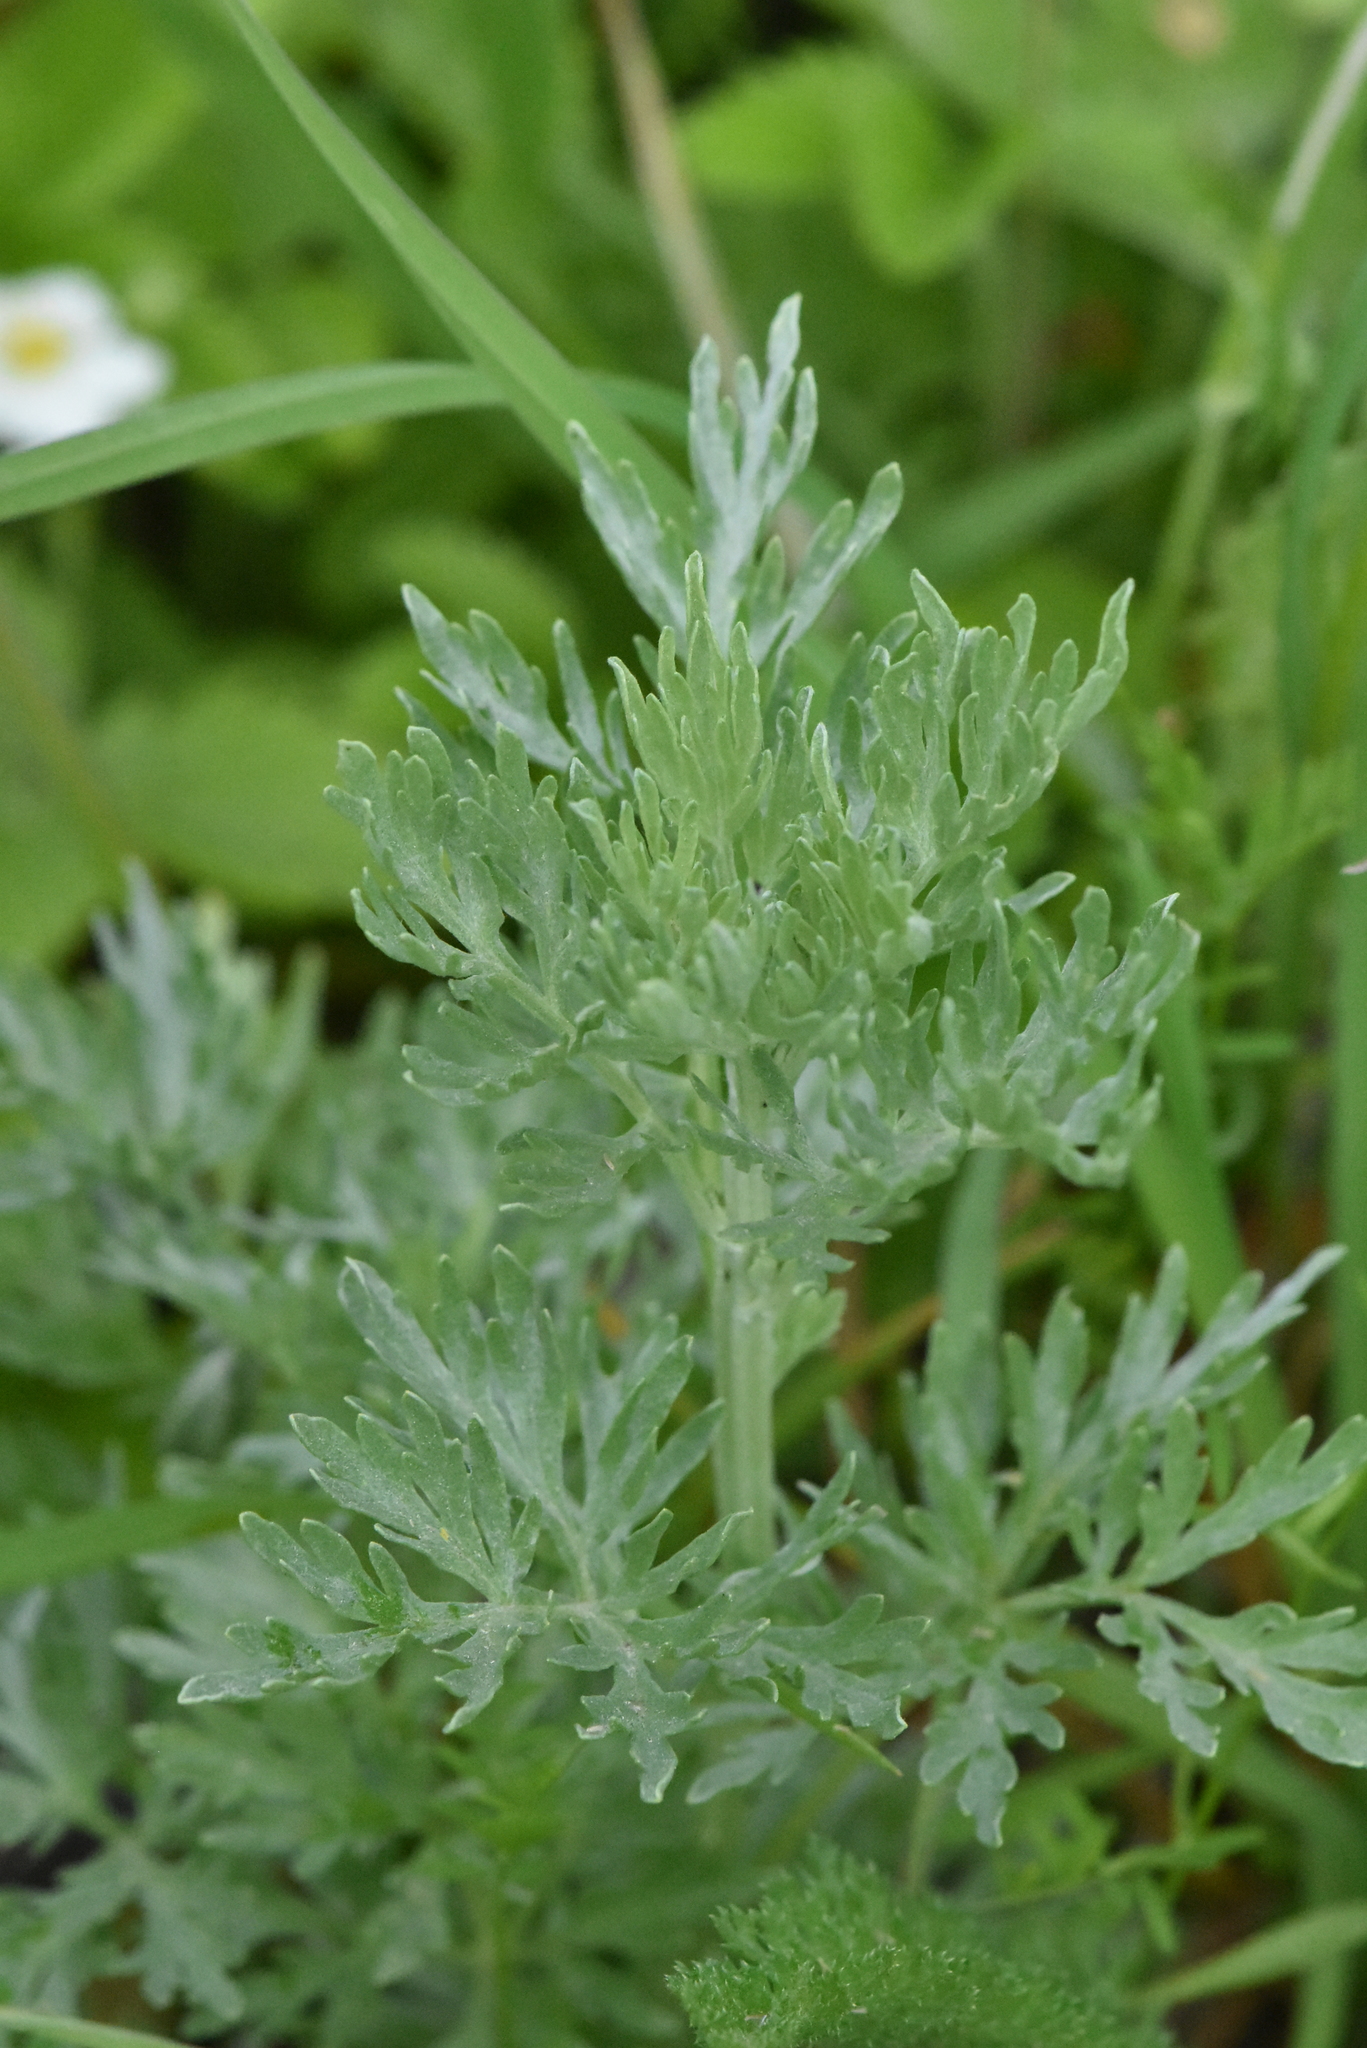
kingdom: Plantae
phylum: Tracheophyta
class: Magnoliopsida
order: Asterales
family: Asteraceae
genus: Artemisia
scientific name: Artemisia absinthium
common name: Wormwood
